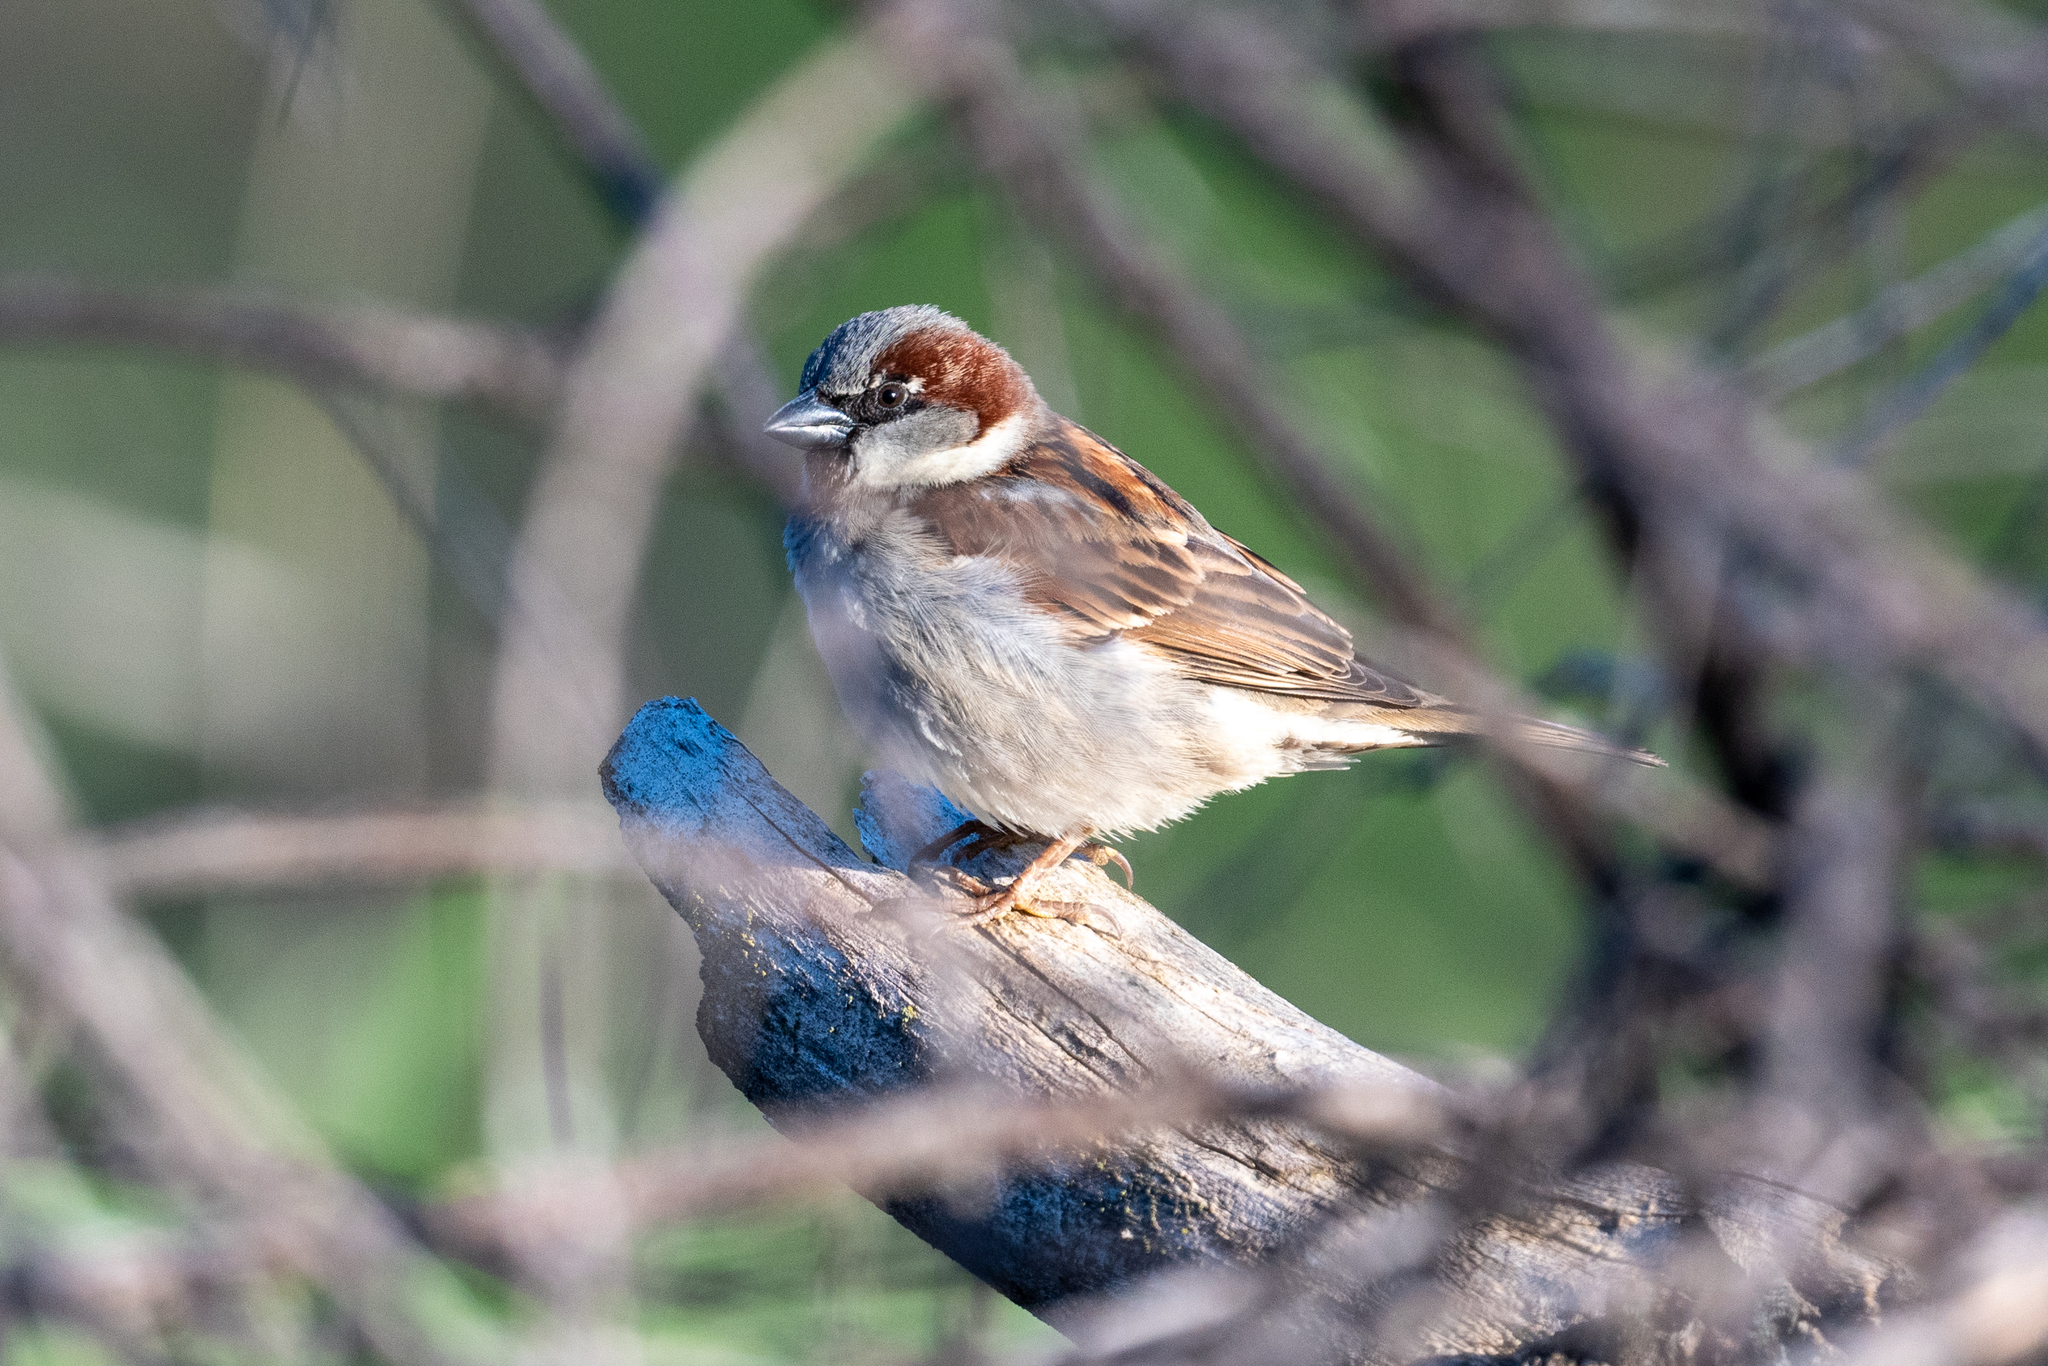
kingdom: Animalia
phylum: Chordata
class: Aves
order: Passeriformes
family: Passeridae
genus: Passer
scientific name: Passer domesticus
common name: House sparrow
